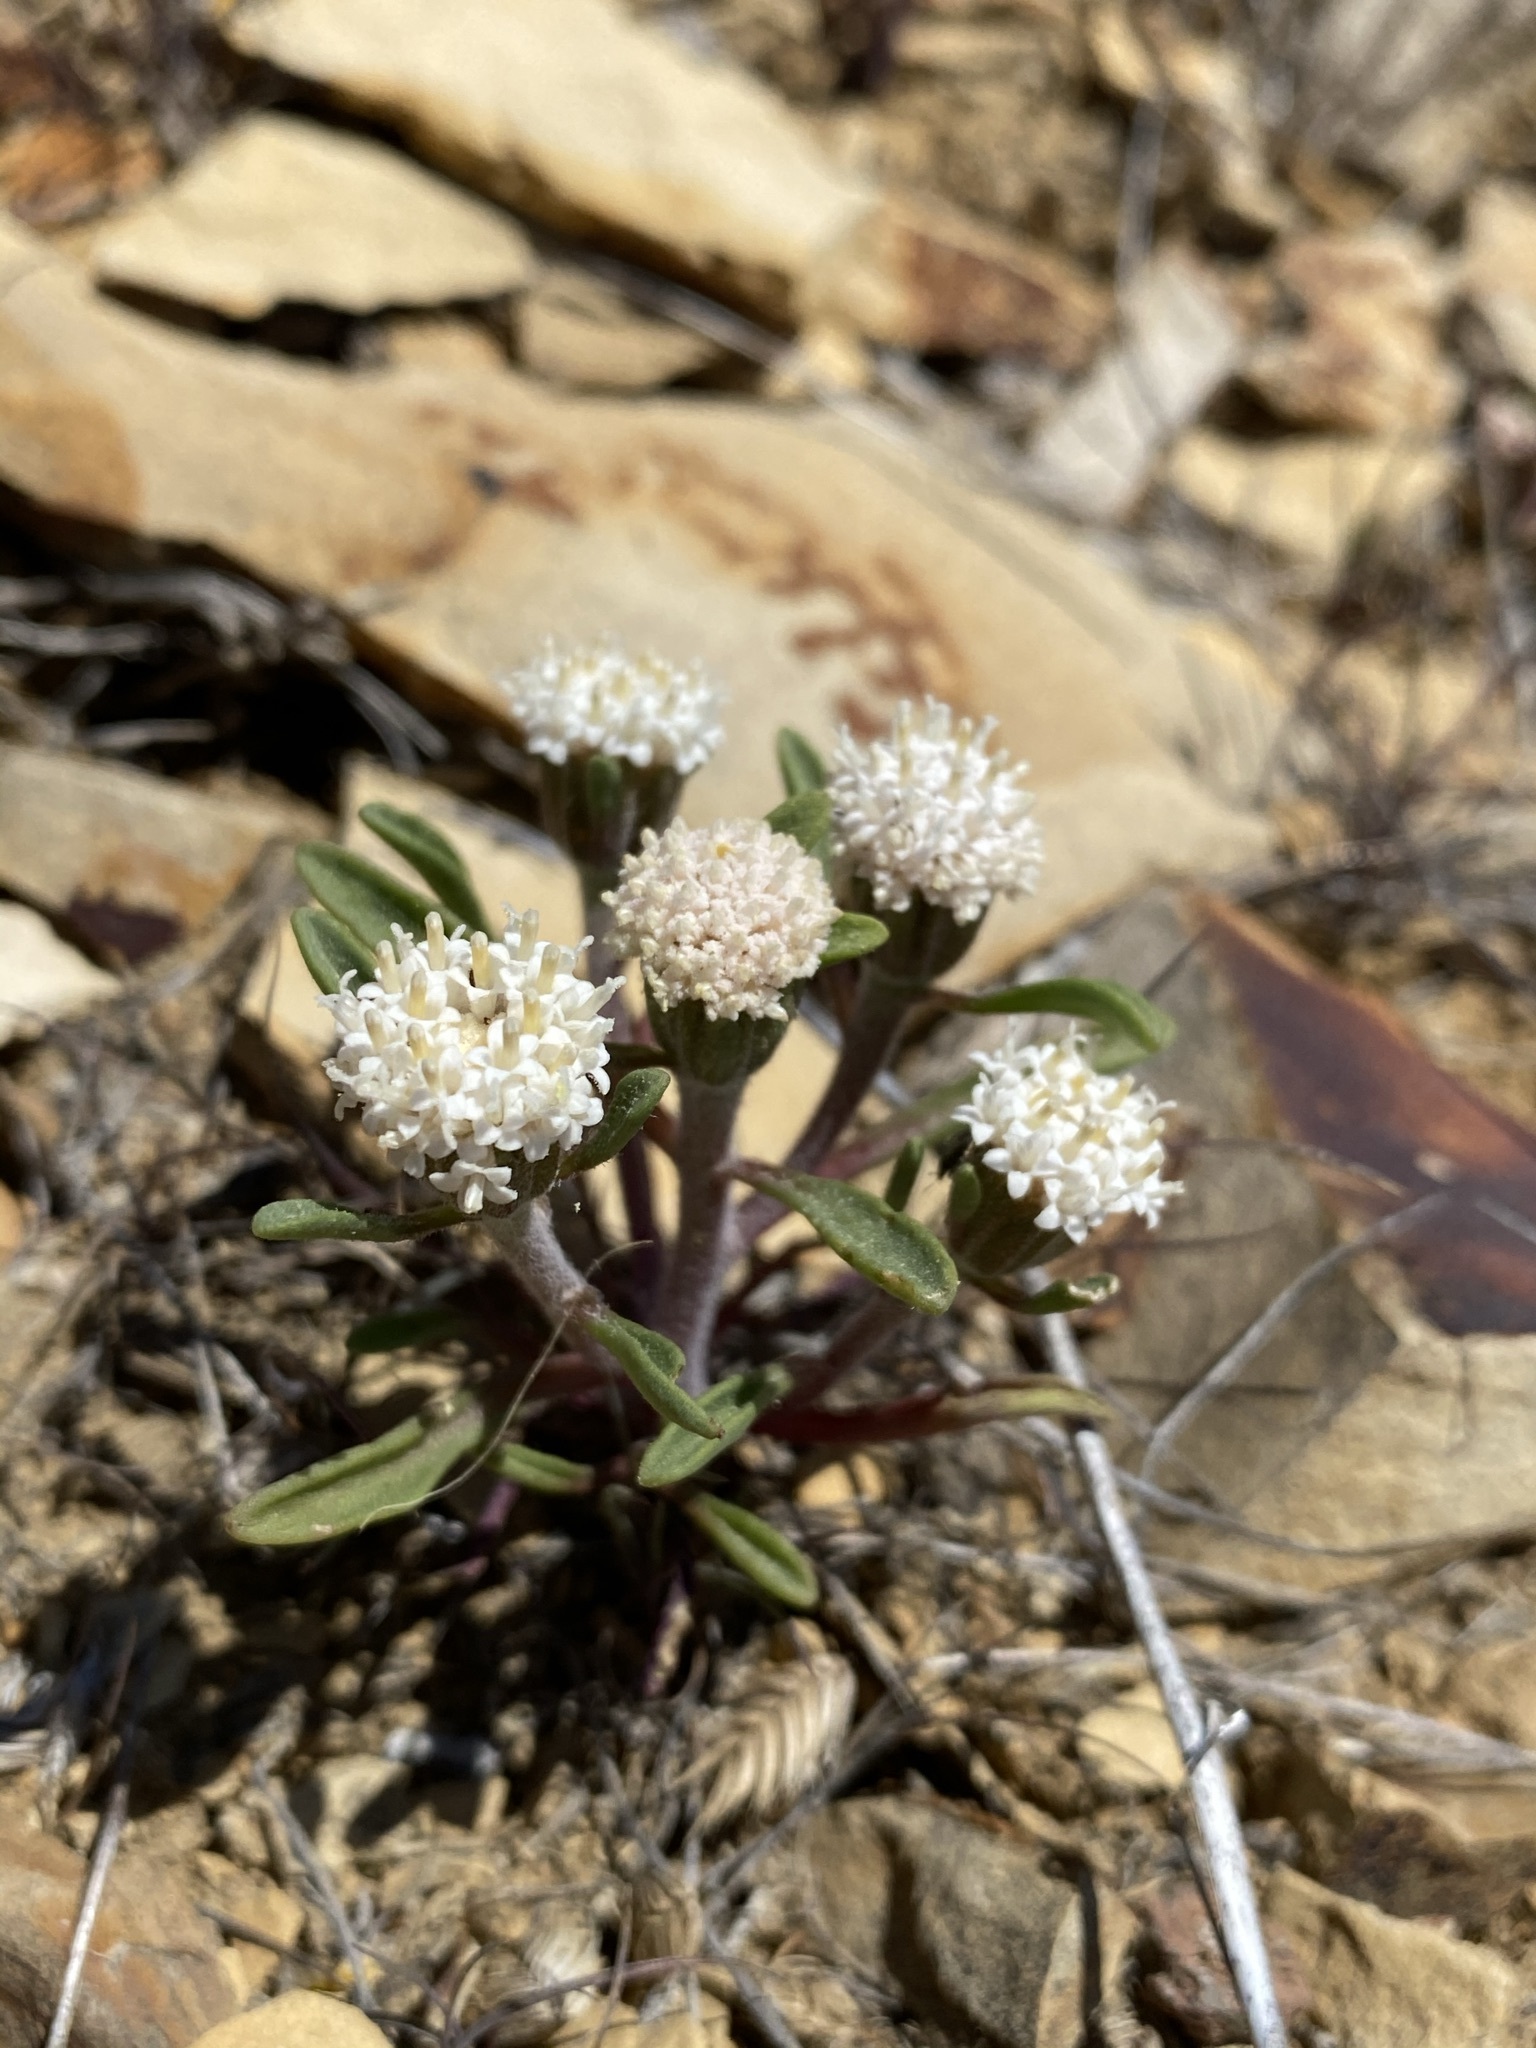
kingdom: Plantae
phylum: Tracheophyta
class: Magnoliopsida
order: Asterales
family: Asteraceae
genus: Chaenactis
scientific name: Chaenactis cusickii
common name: Cusick's pincushion
